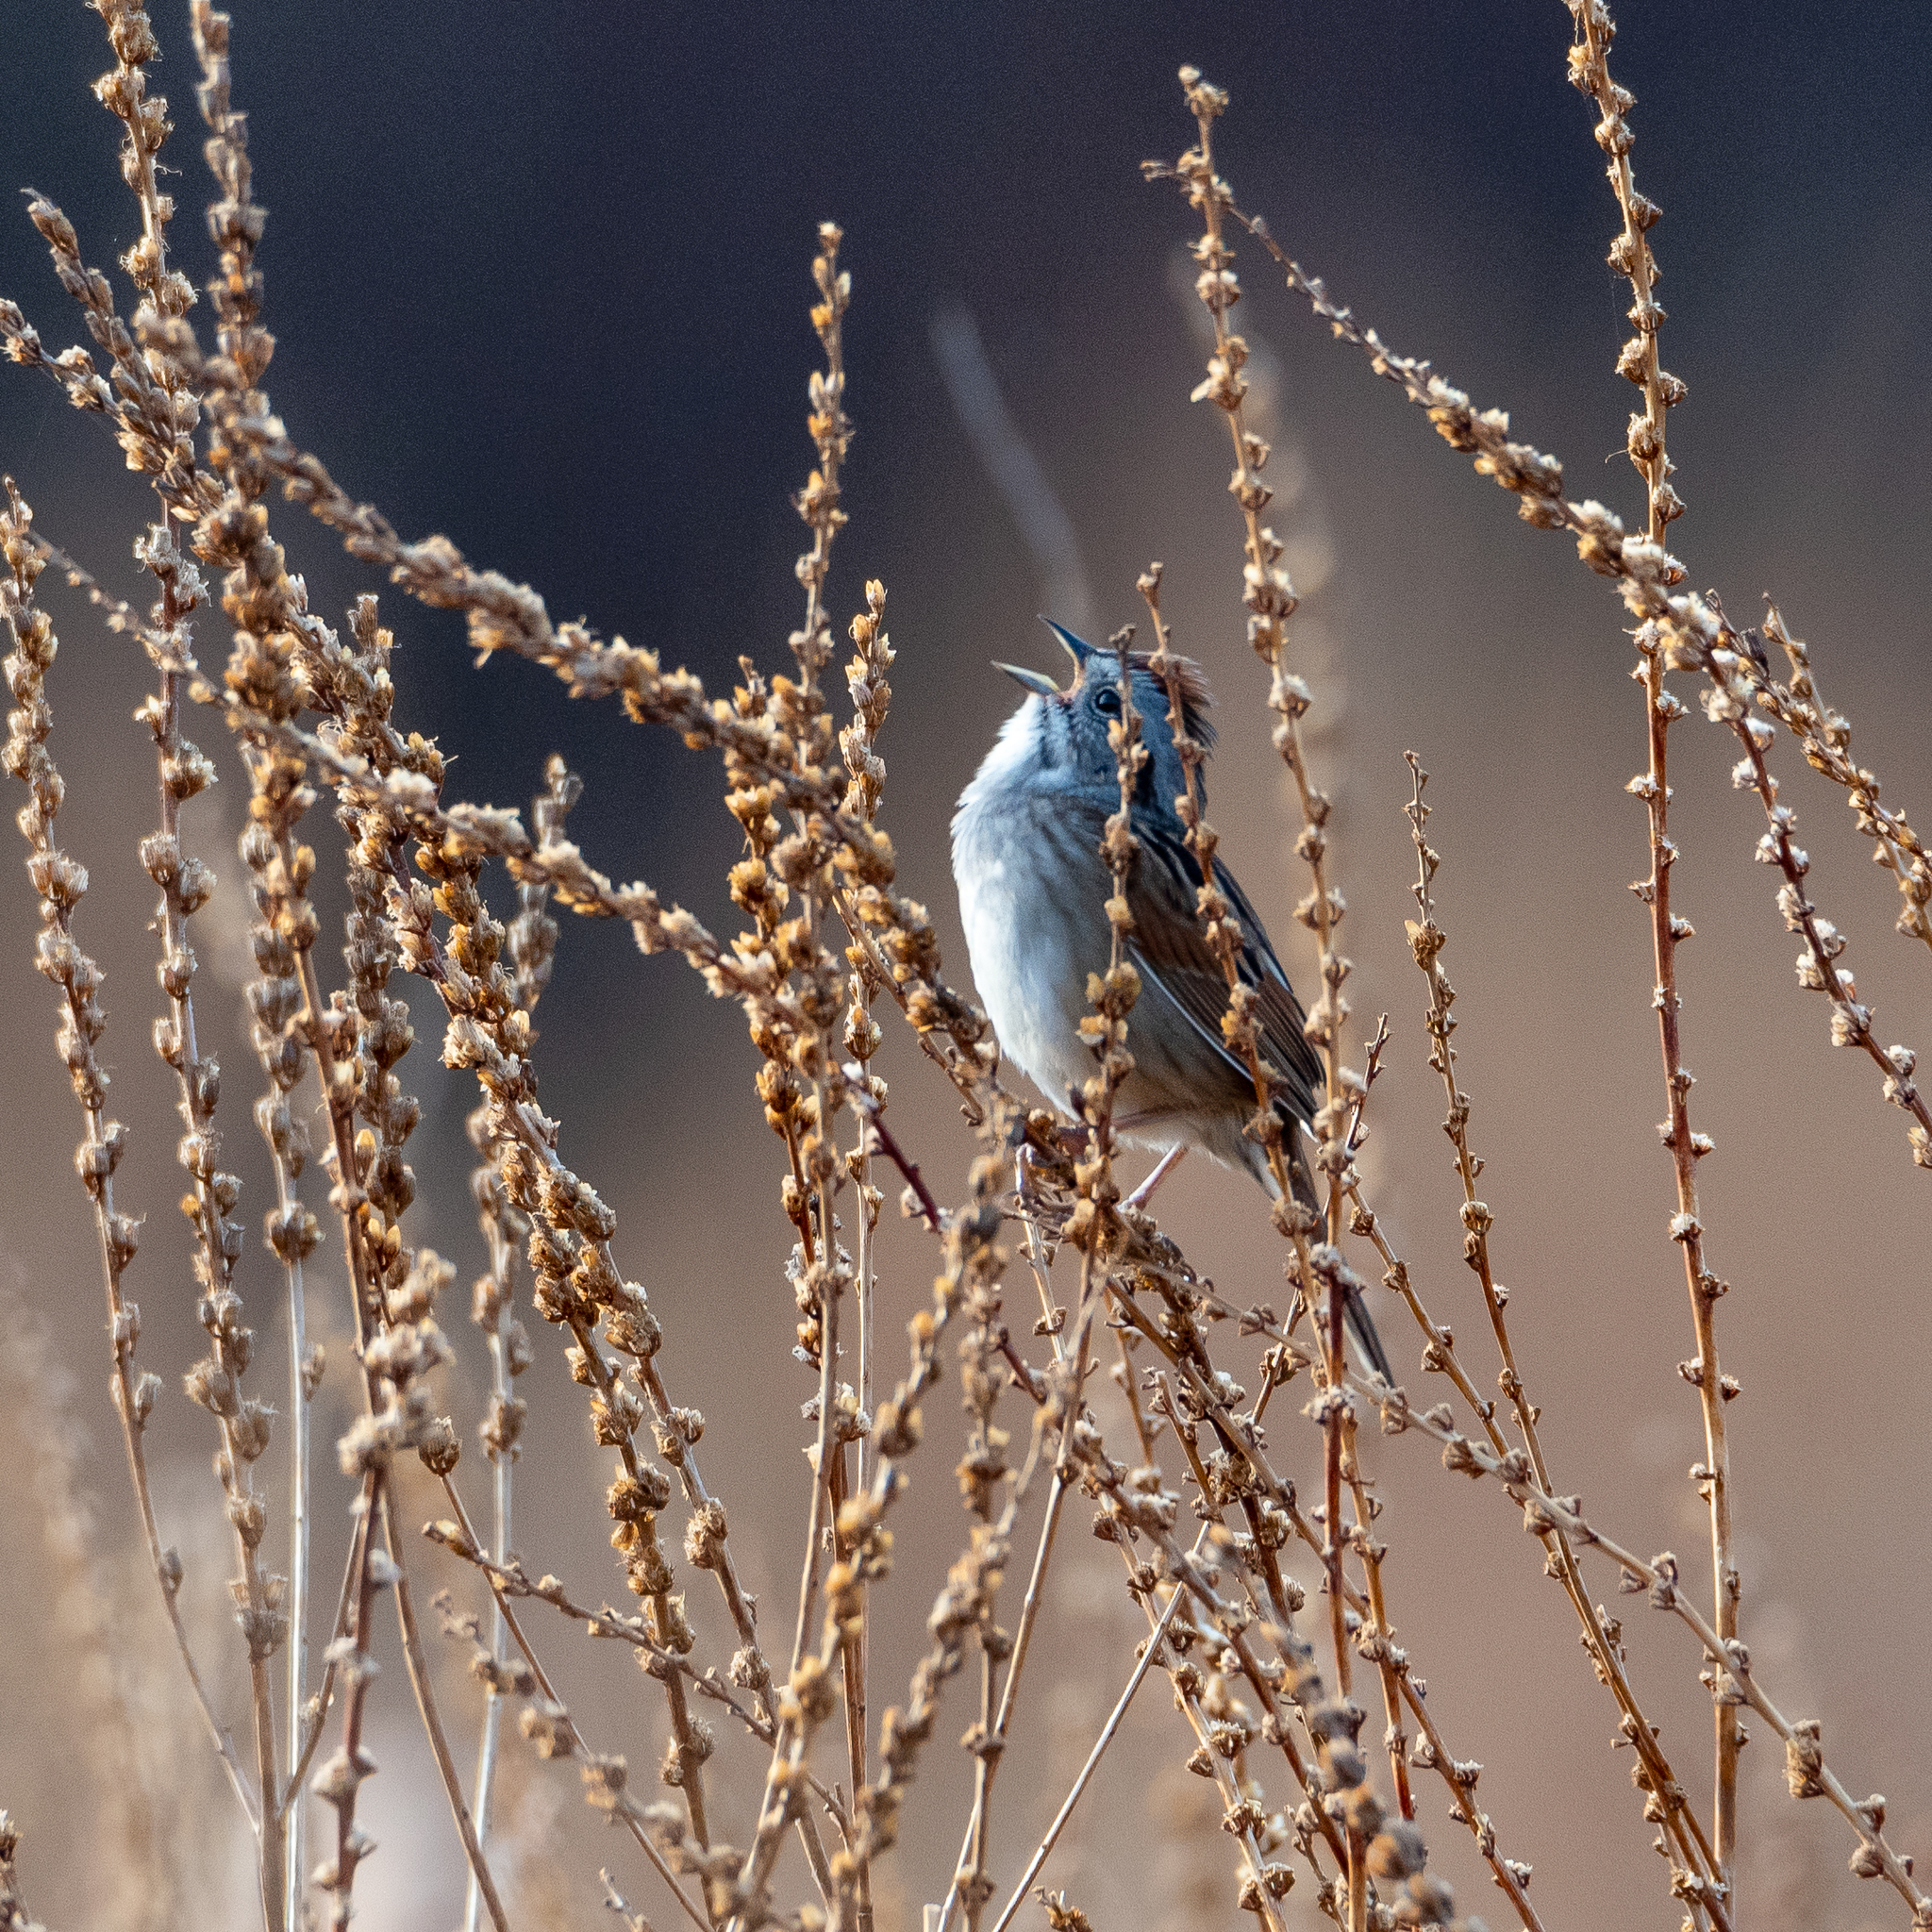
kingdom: Animalia
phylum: Chordata
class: Aves
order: Passeriformes
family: Passerellidae
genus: Melospiza
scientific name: Melospiza georgiana
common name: Swamp sparrow
